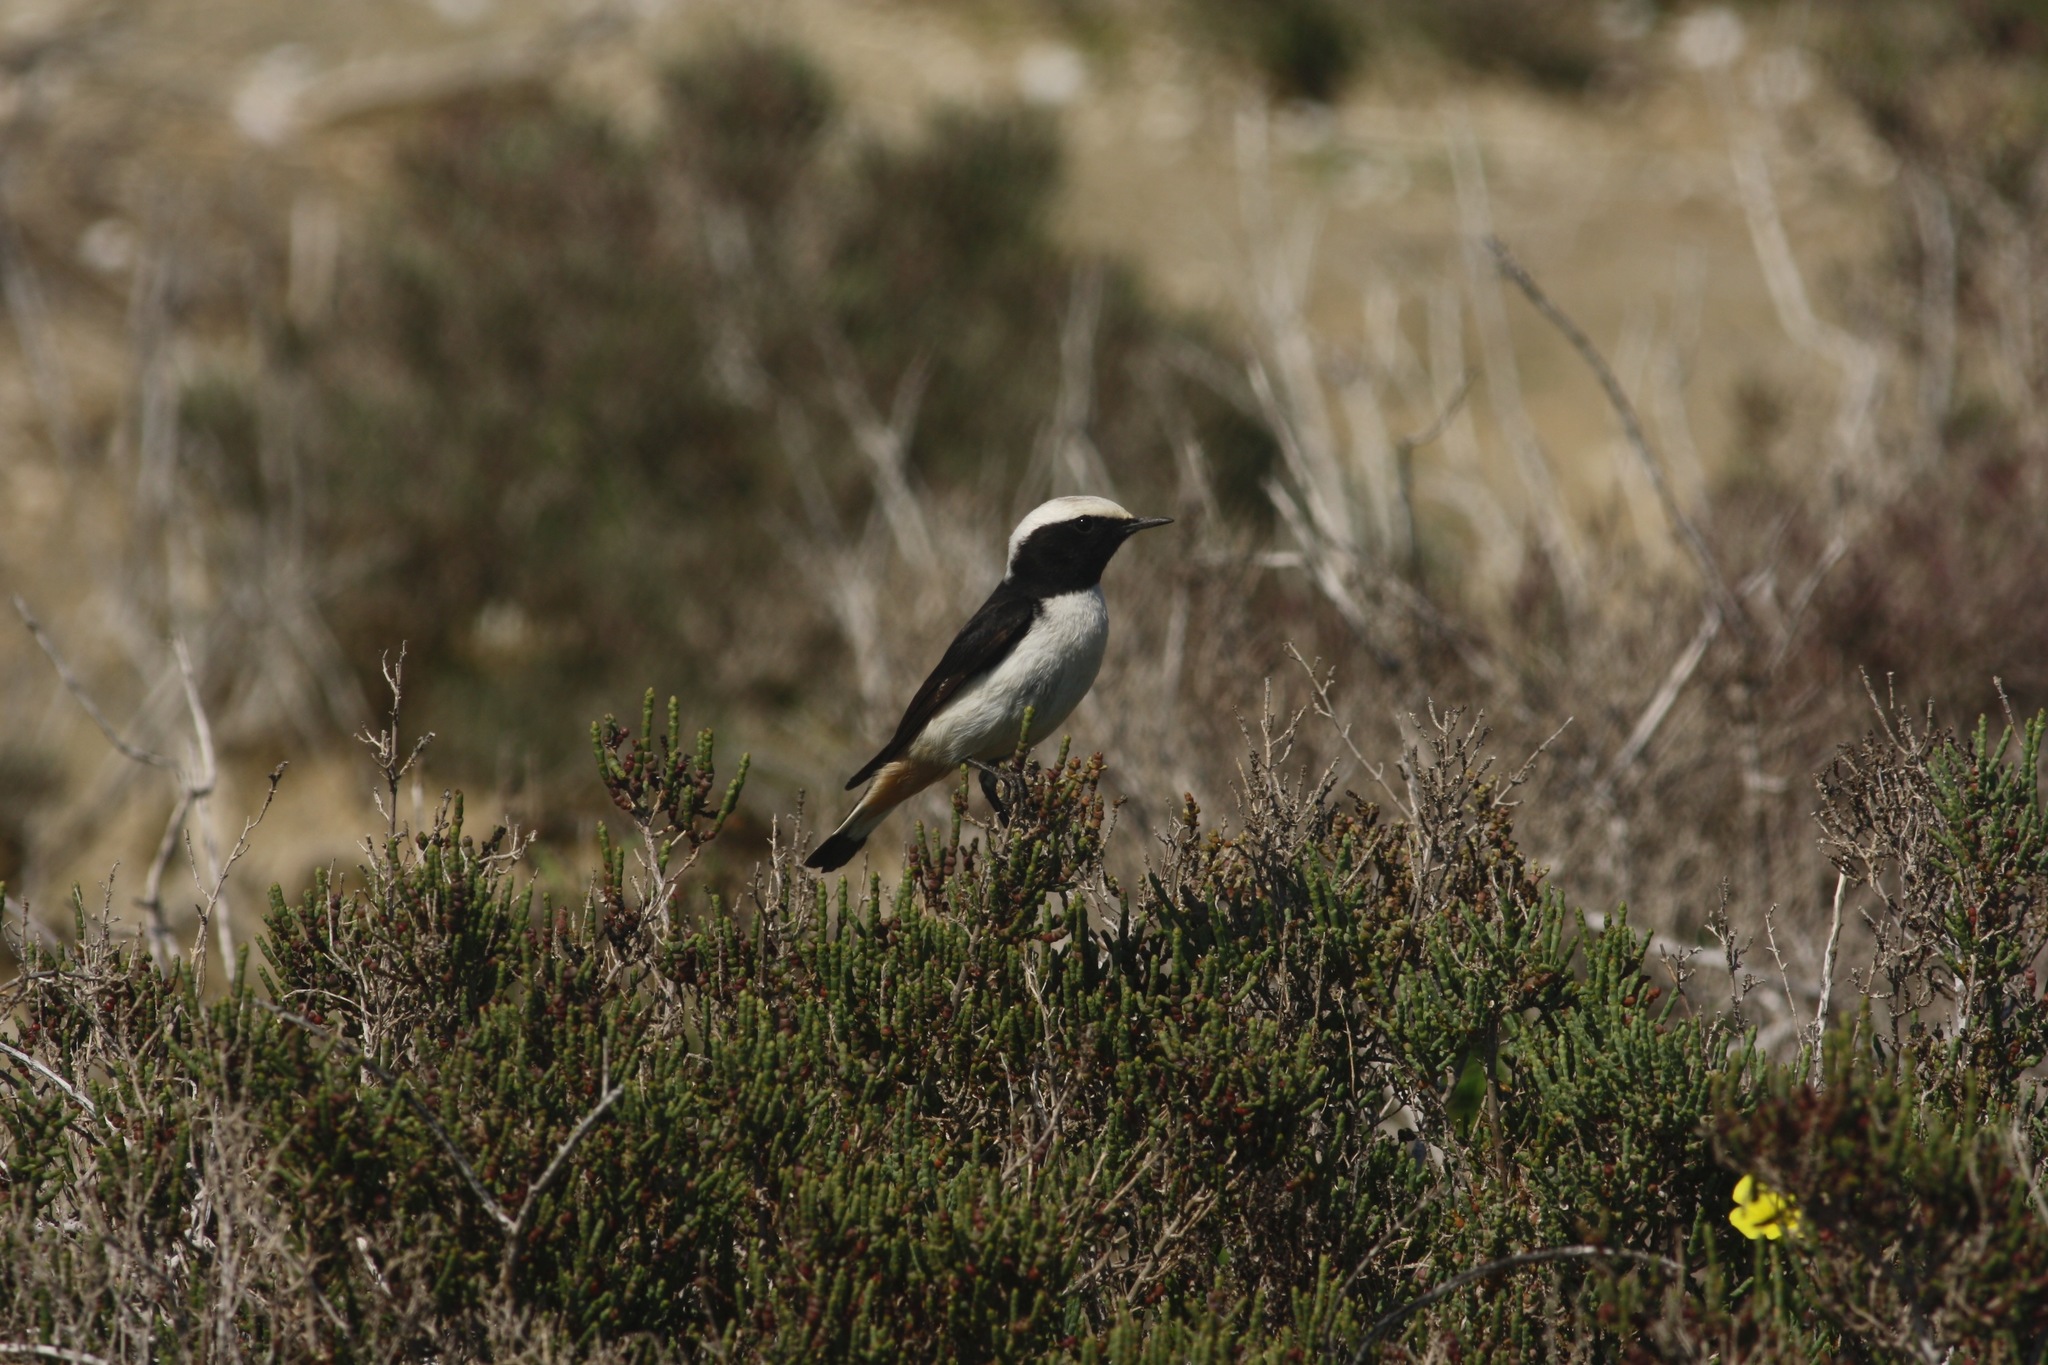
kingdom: Animalia
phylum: Chordata
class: Aves
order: Passeriformes
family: Muscicapidae
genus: Oenanthe
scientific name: Oenanthe cypriaca
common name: Cyprus wheatear
